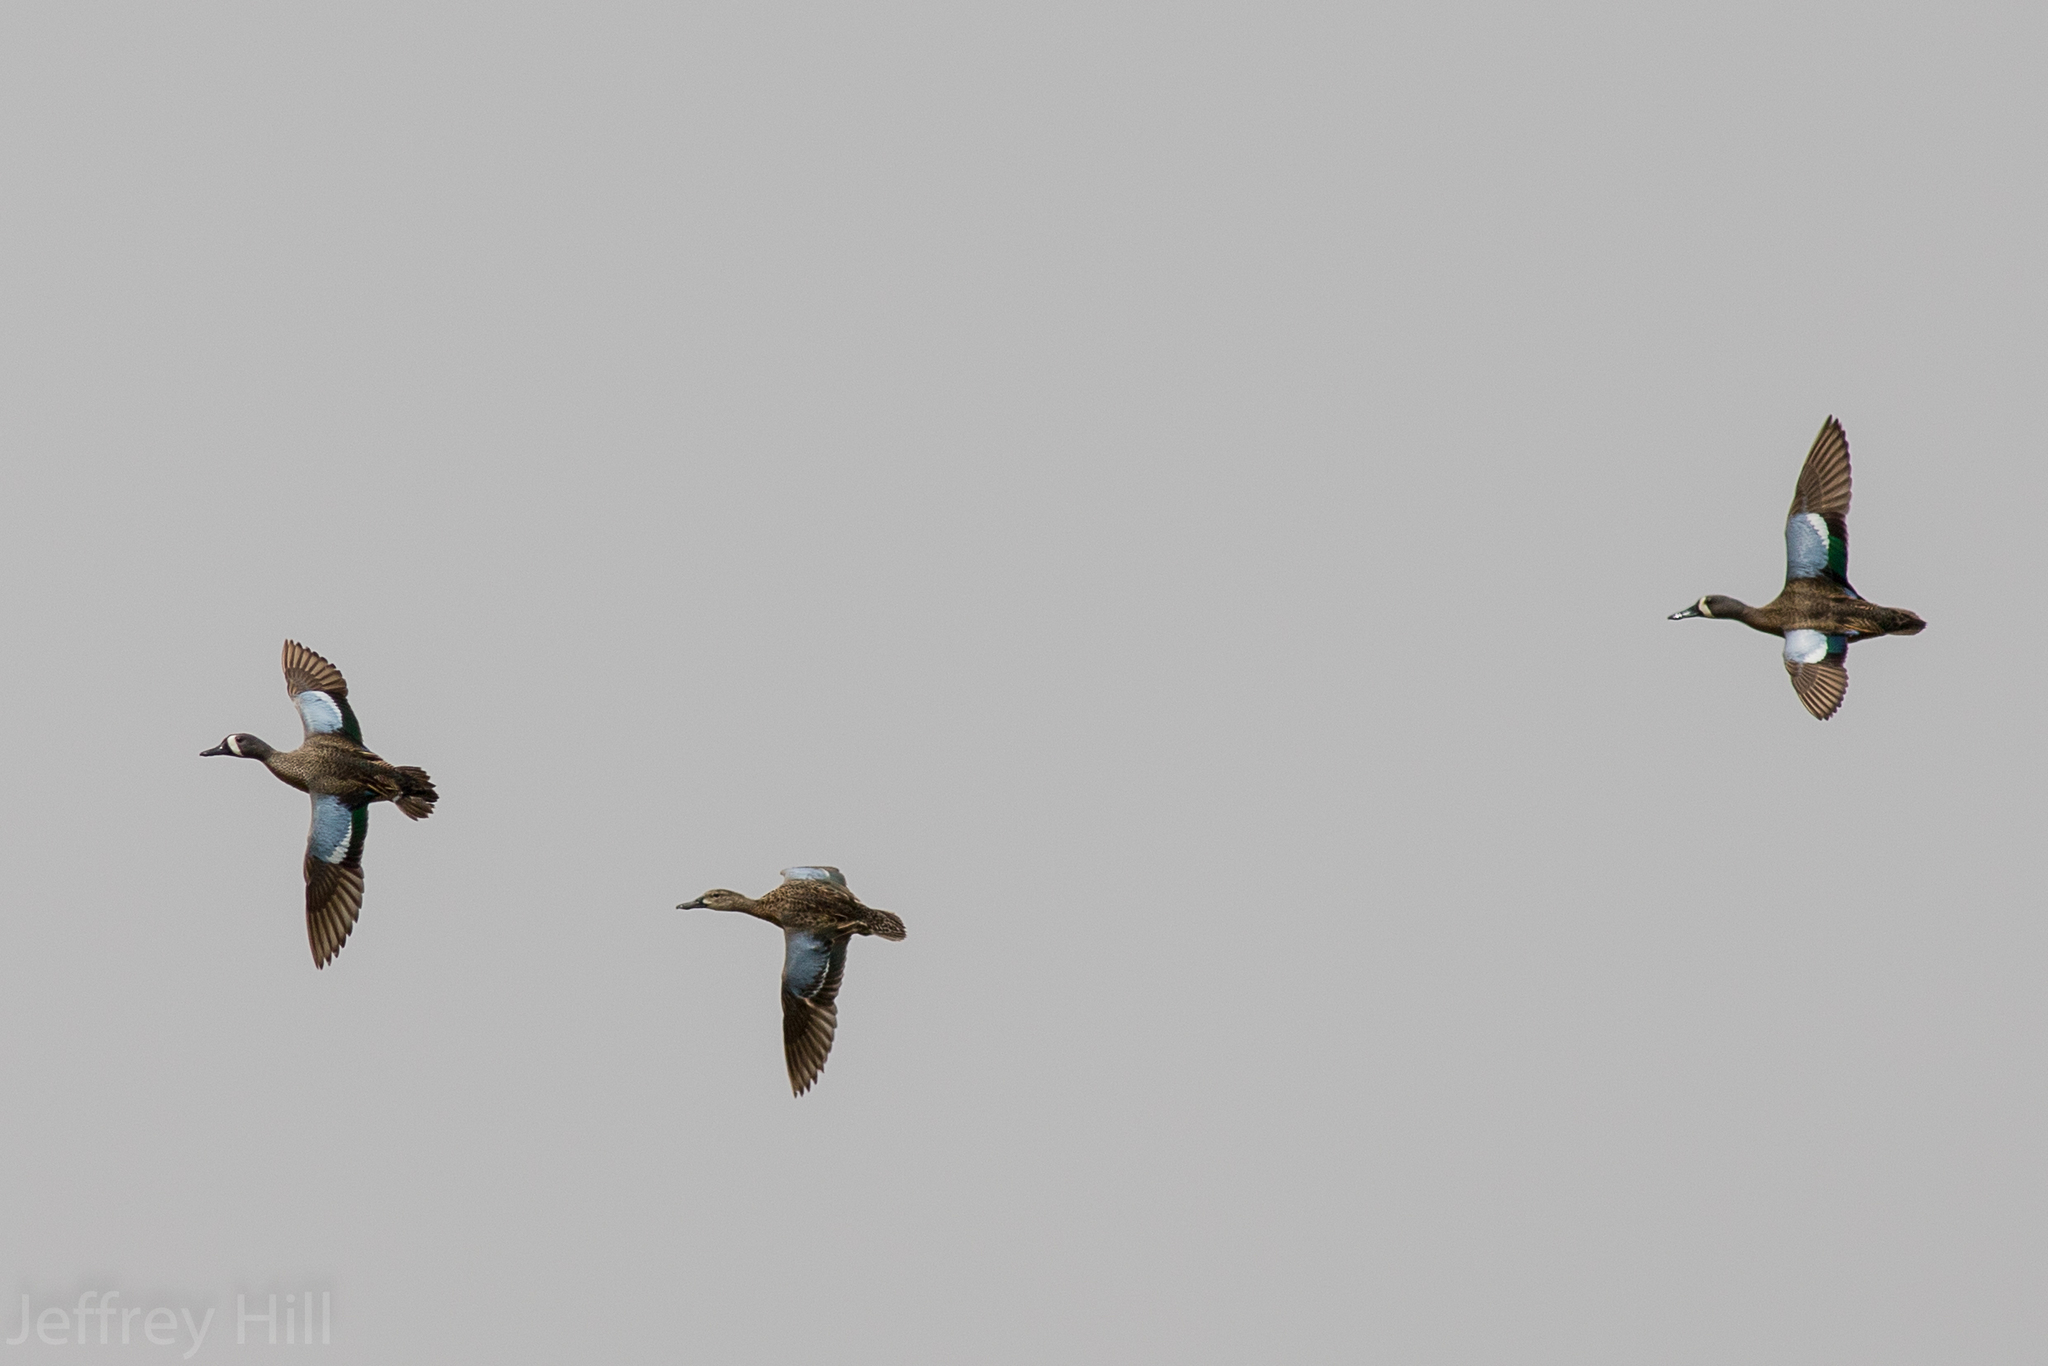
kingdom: Animalia
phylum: Chordata
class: Aves
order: Anseriformes
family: Anatidae
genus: Spatula
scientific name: Spatula discors
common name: Blue-winged teal
